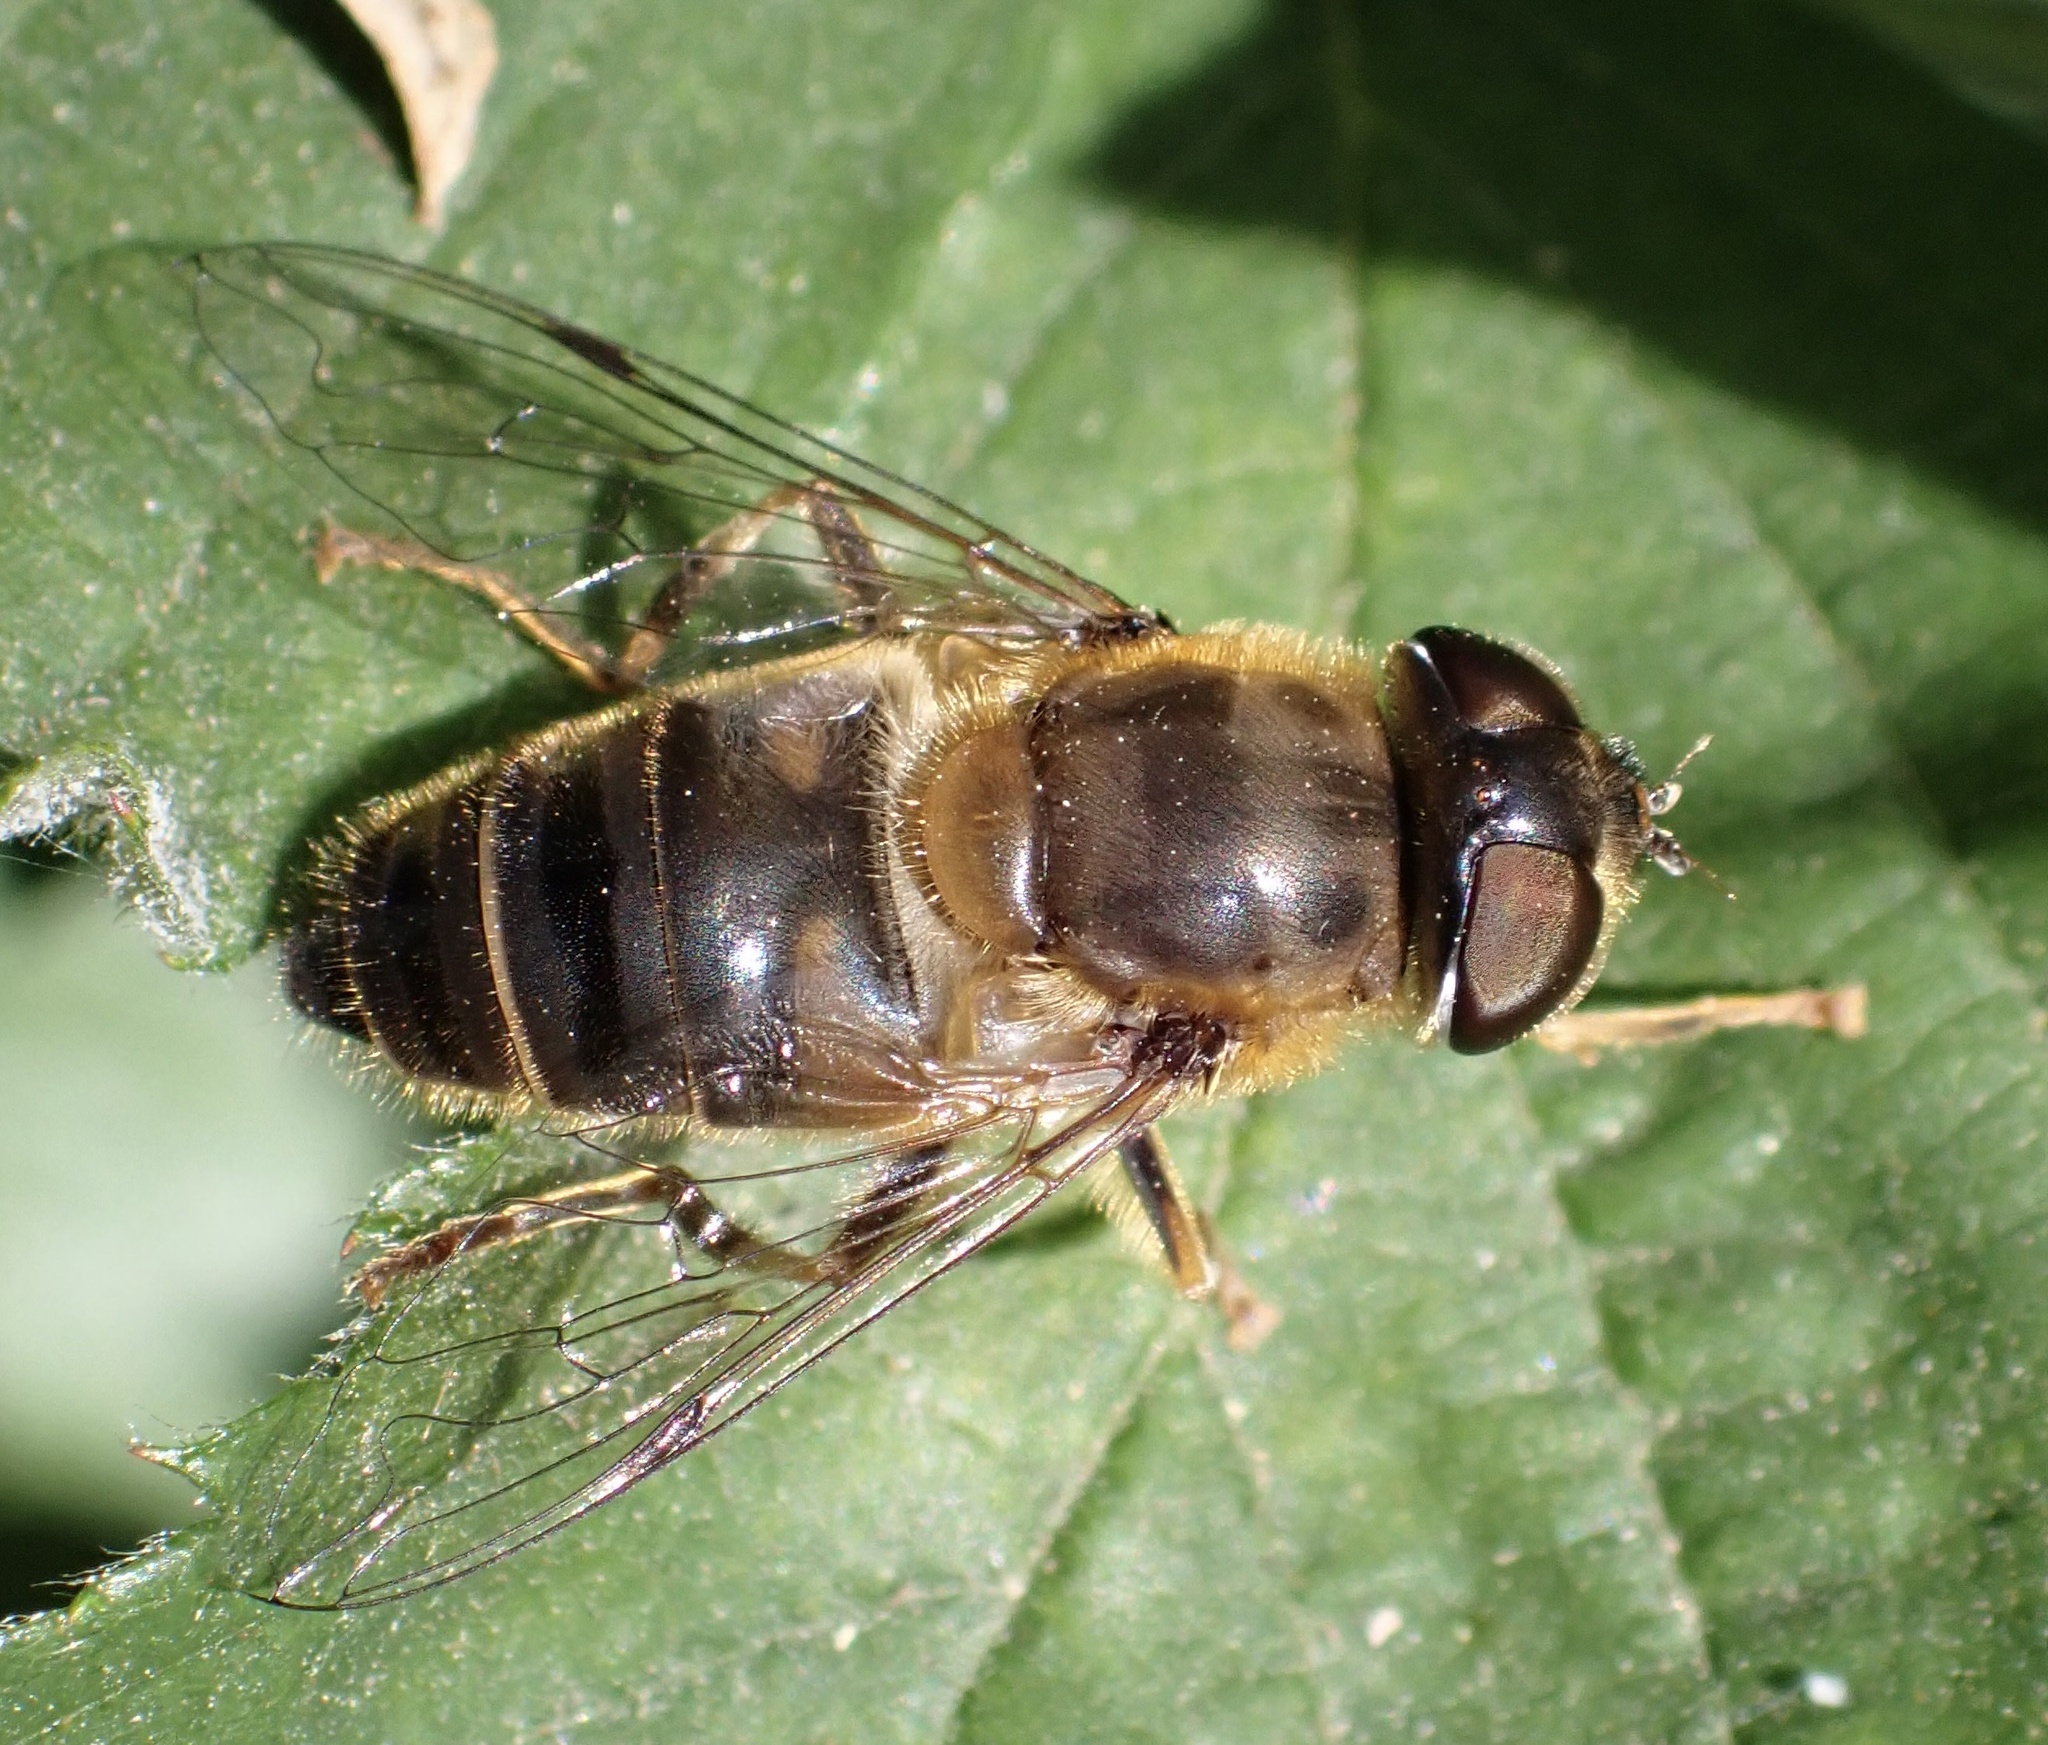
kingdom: Animalia
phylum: Arthropoda
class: Insecta
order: Diptera
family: Syrphidae
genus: Eristalis
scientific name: Eristalis pertinax
